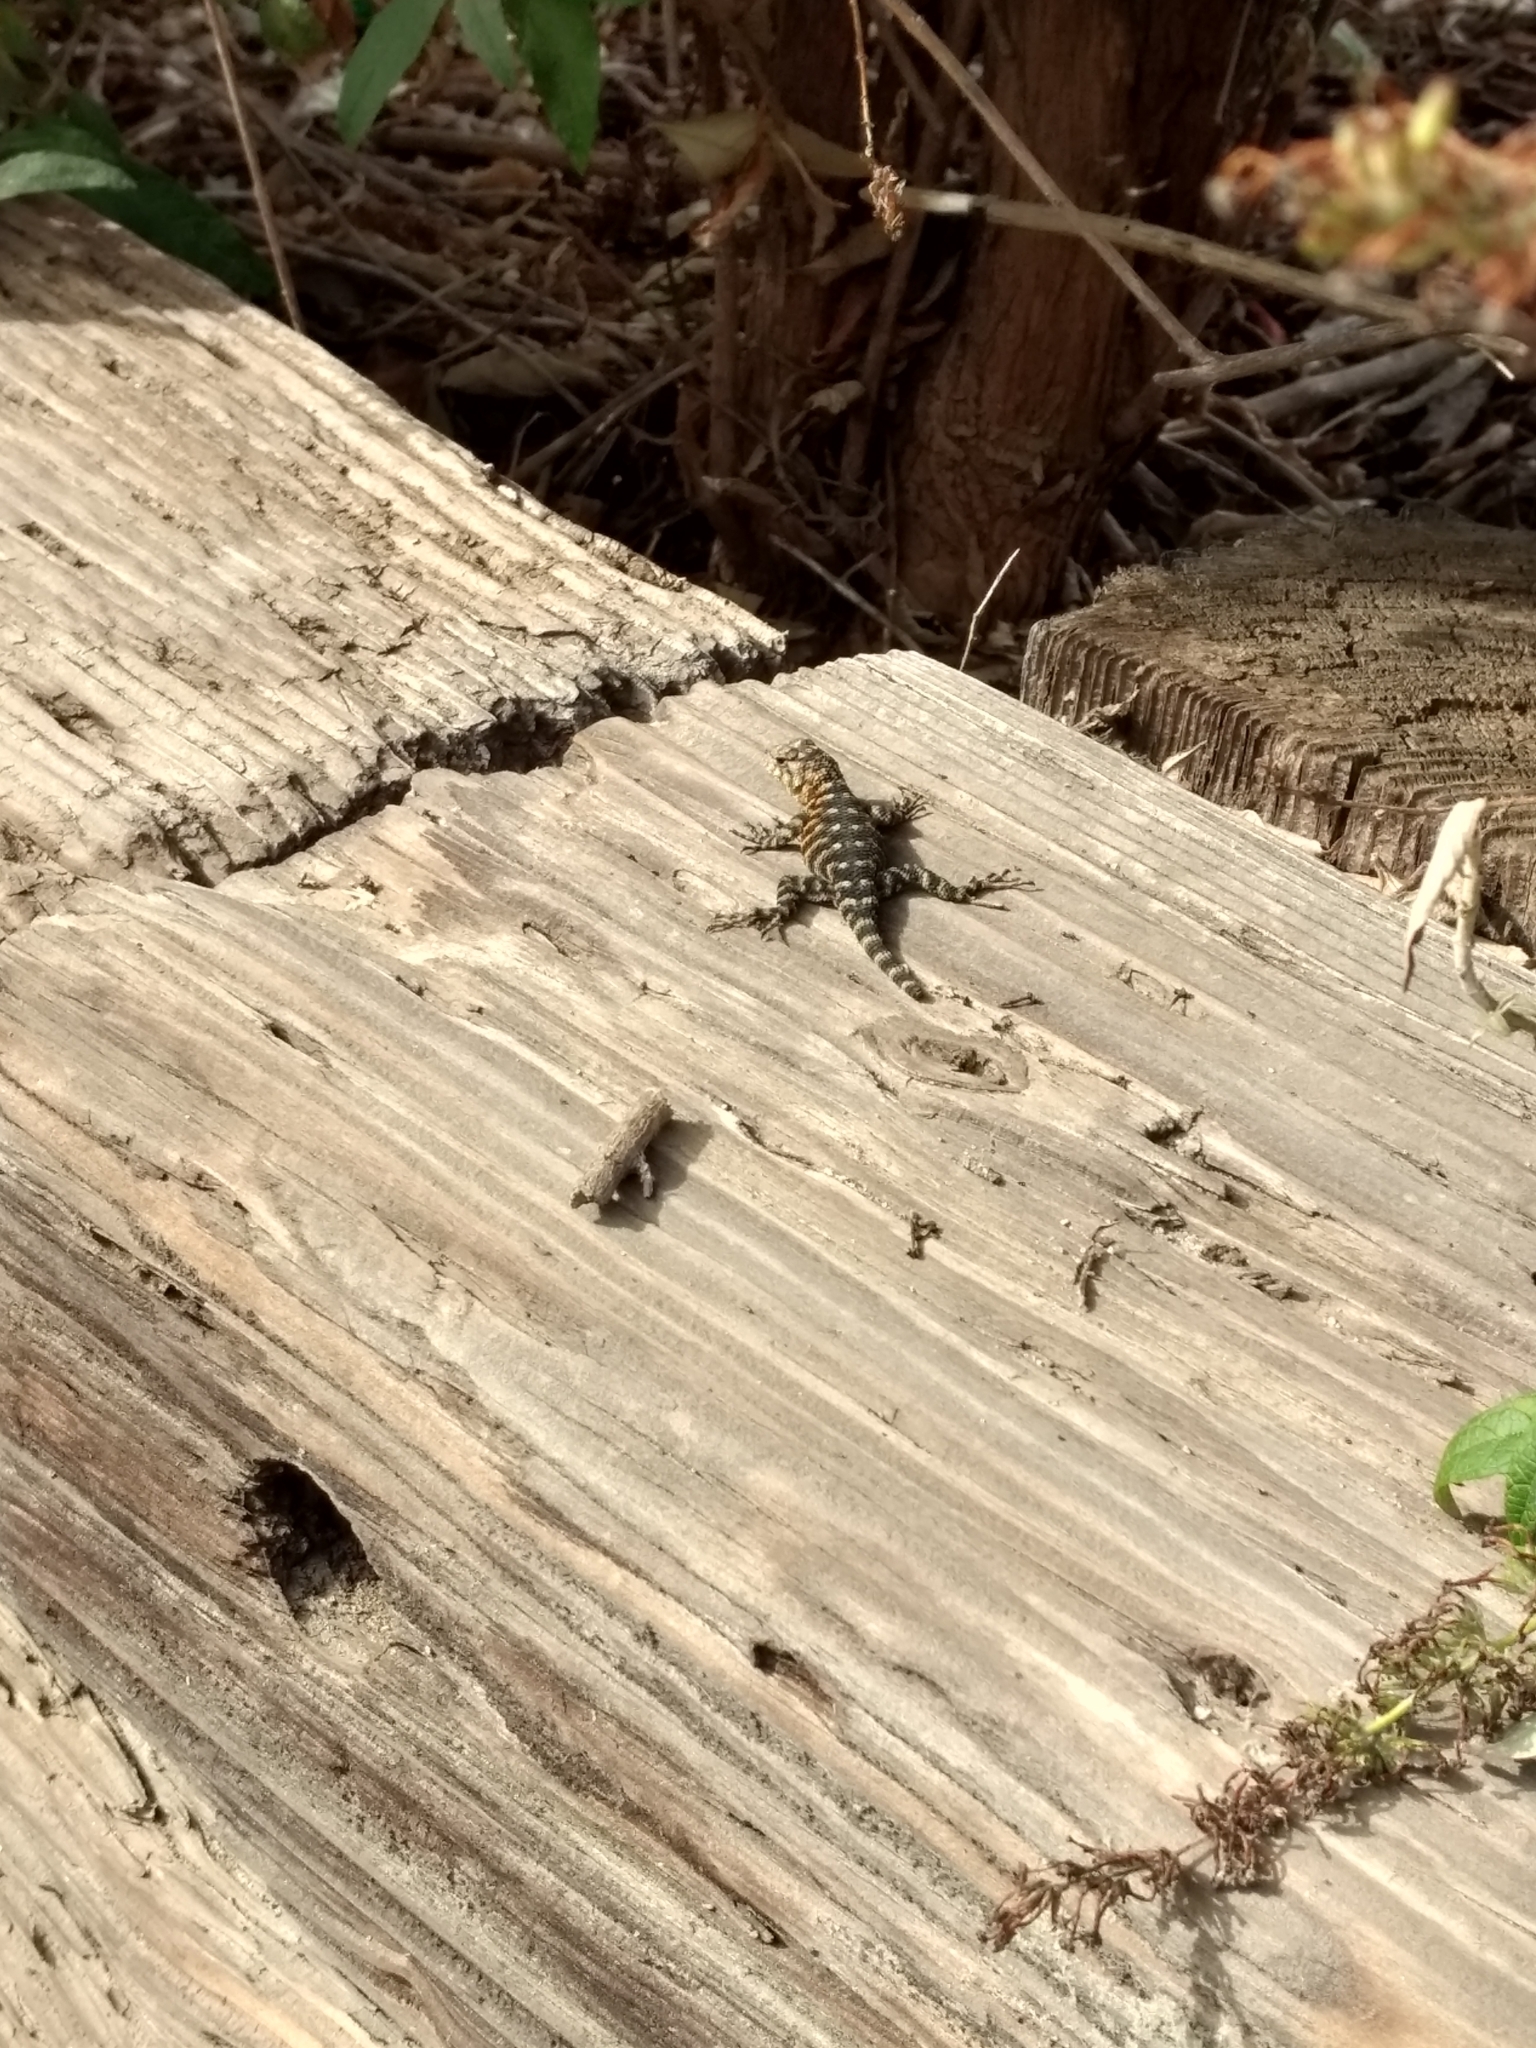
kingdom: Animalia
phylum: Chordata
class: Squamata
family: Phrynosomatidae
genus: Sceloporus
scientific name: Sceloporus orcutti
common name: Granite spiny lizard
